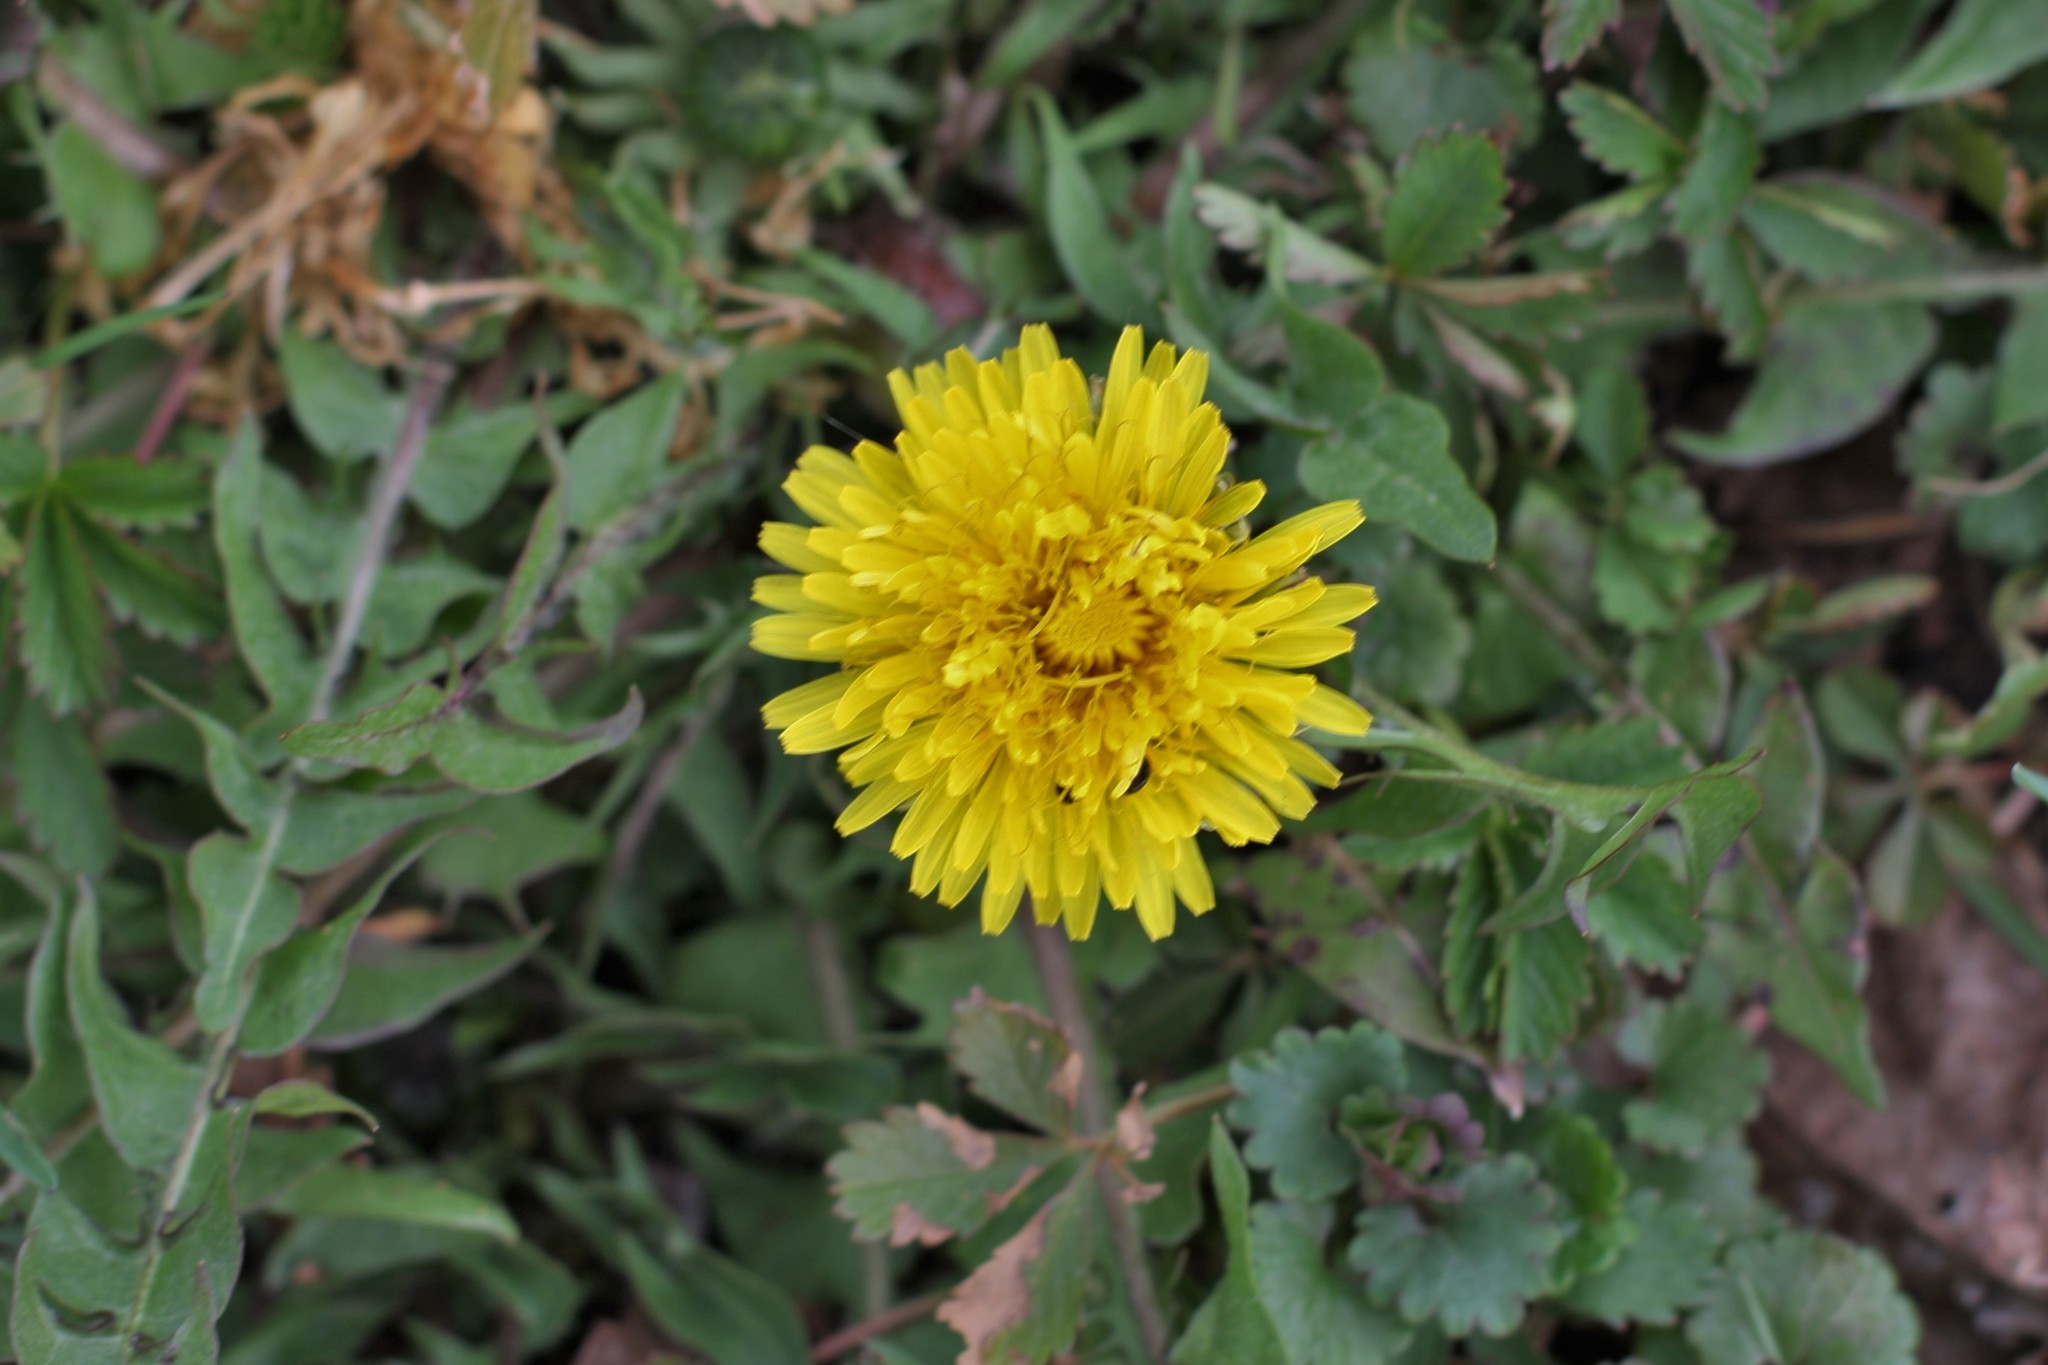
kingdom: Plantae
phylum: Tracheophyta
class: Magnoliopsida
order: Asterales
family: Asteraceae
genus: Taraxacum
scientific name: Taraxacum officinale
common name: Common dandelion
